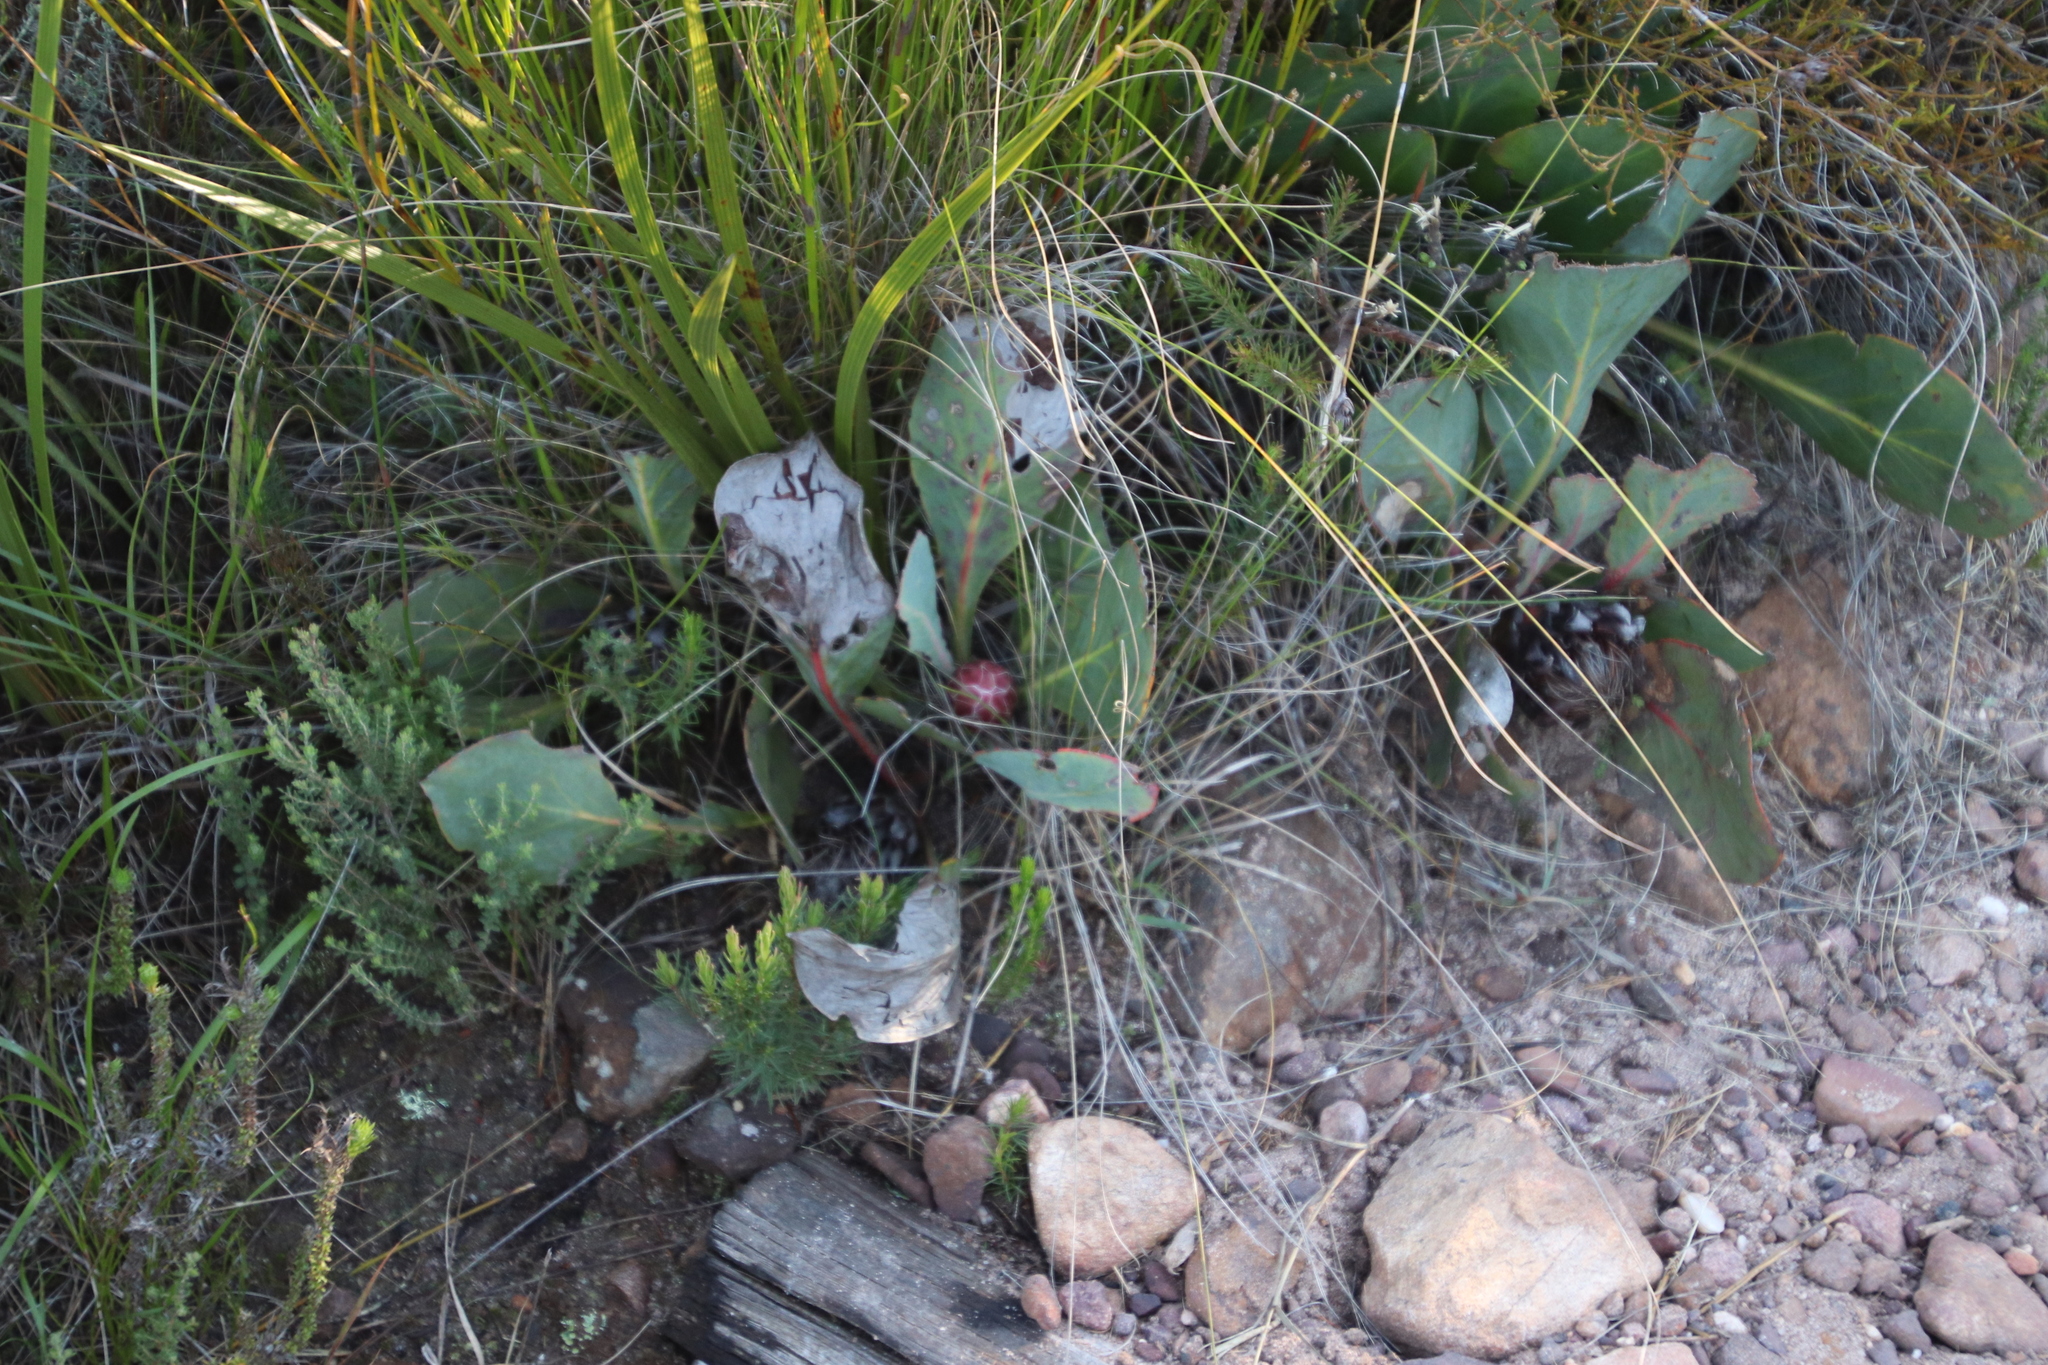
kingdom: Plantae
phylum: Tracheophyta
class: Magnoliopsida
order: Proteales
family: Proteaceae
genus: Protea
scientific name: Protea acaulos
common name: Common ground sugarbush
